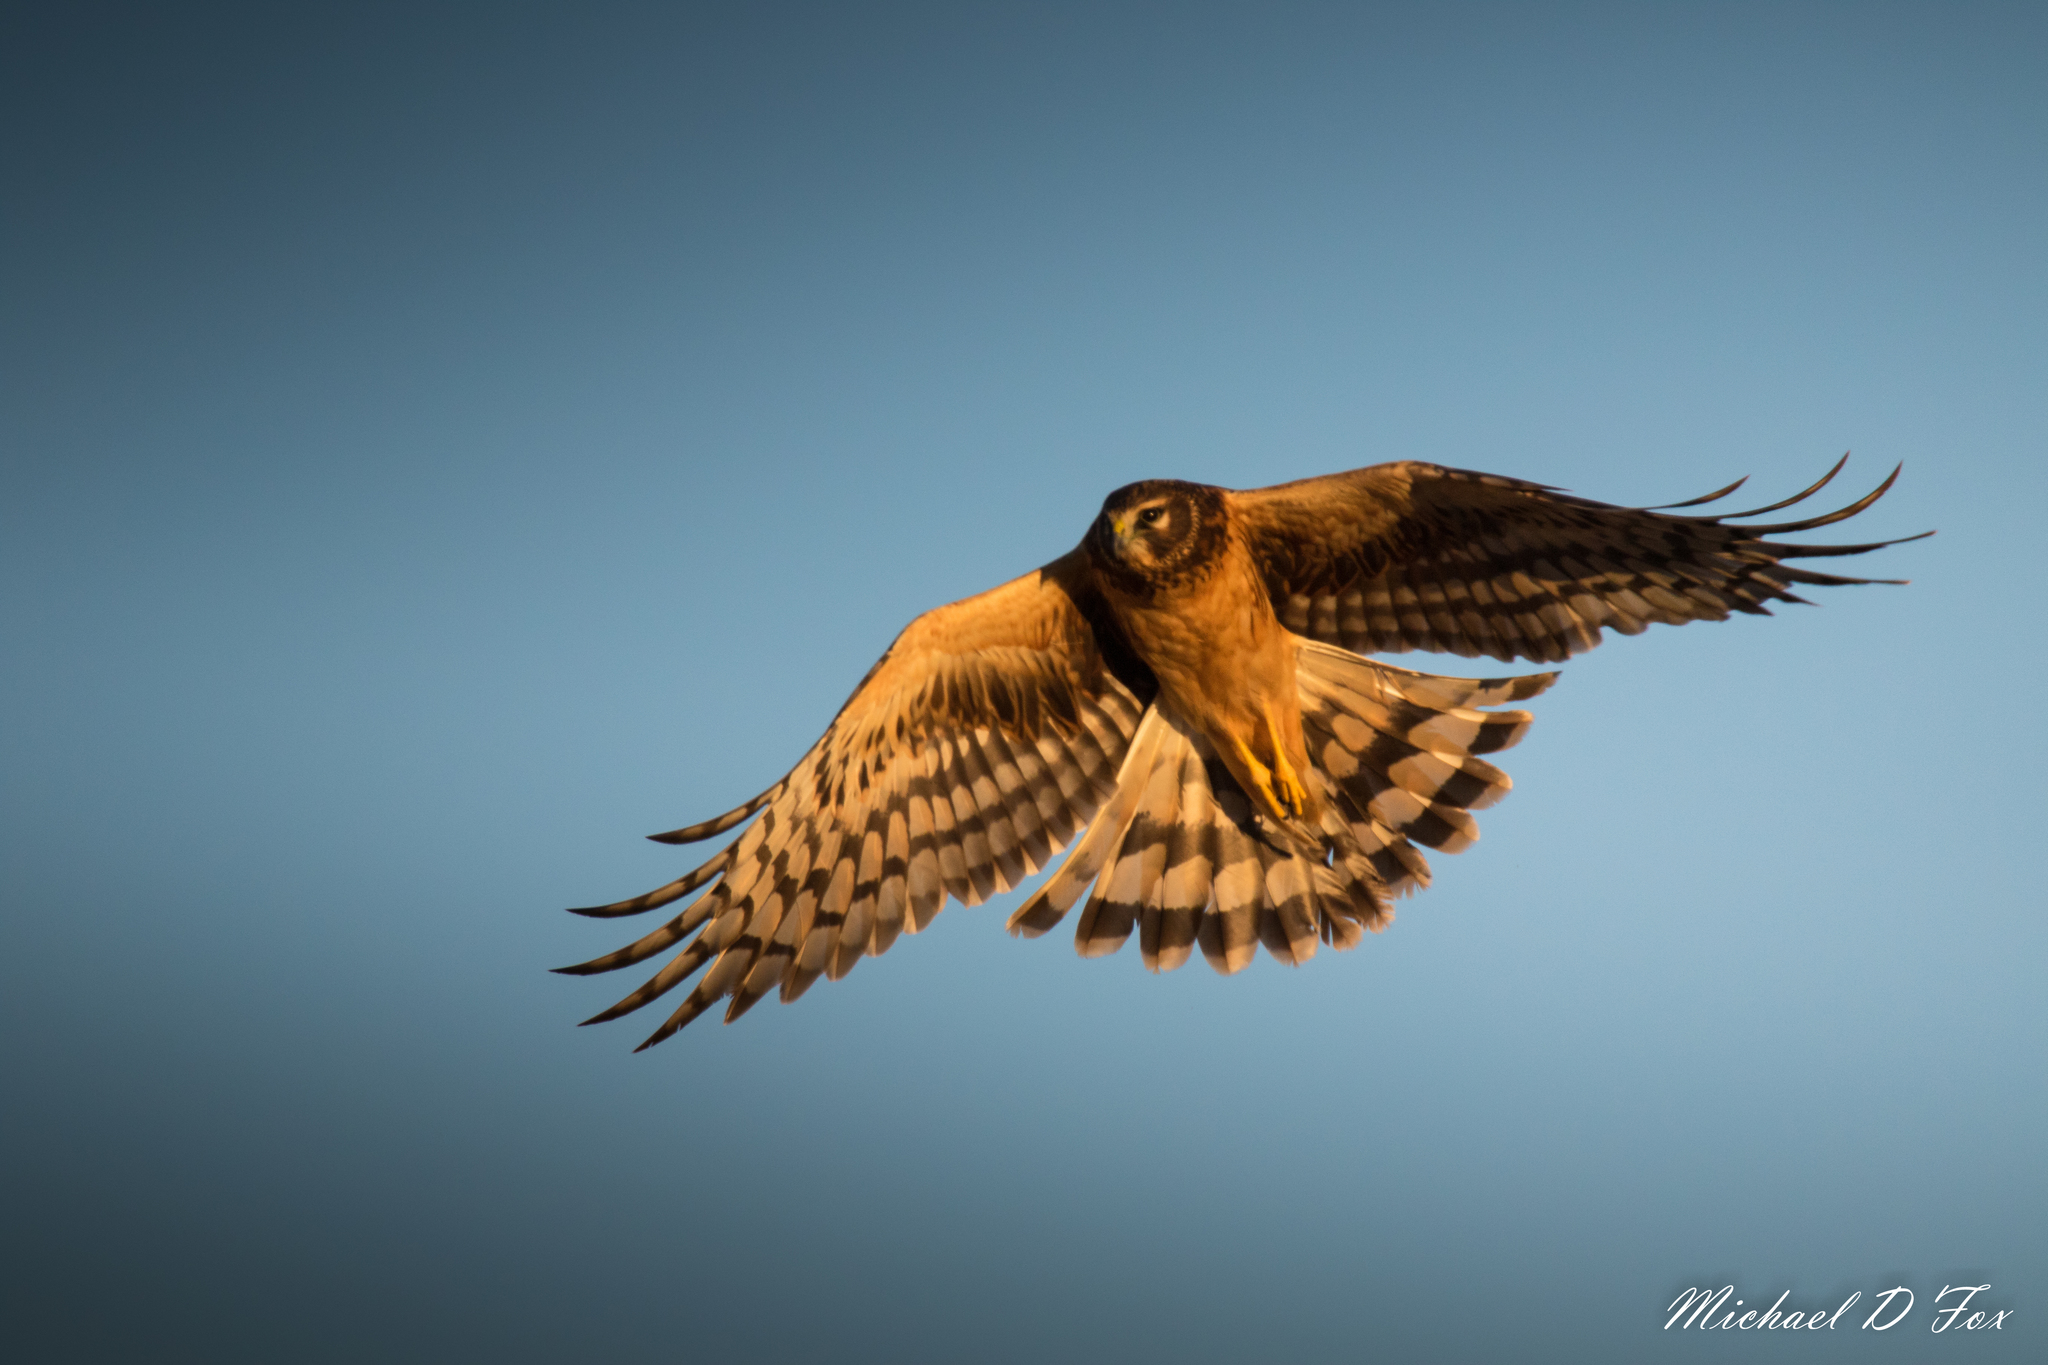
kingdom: Animalia
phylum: Chordata
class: Aves
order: Accipitriformes
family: Accipitridae
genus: Circus
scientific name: Circus cyaneus
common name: Hen harrier
